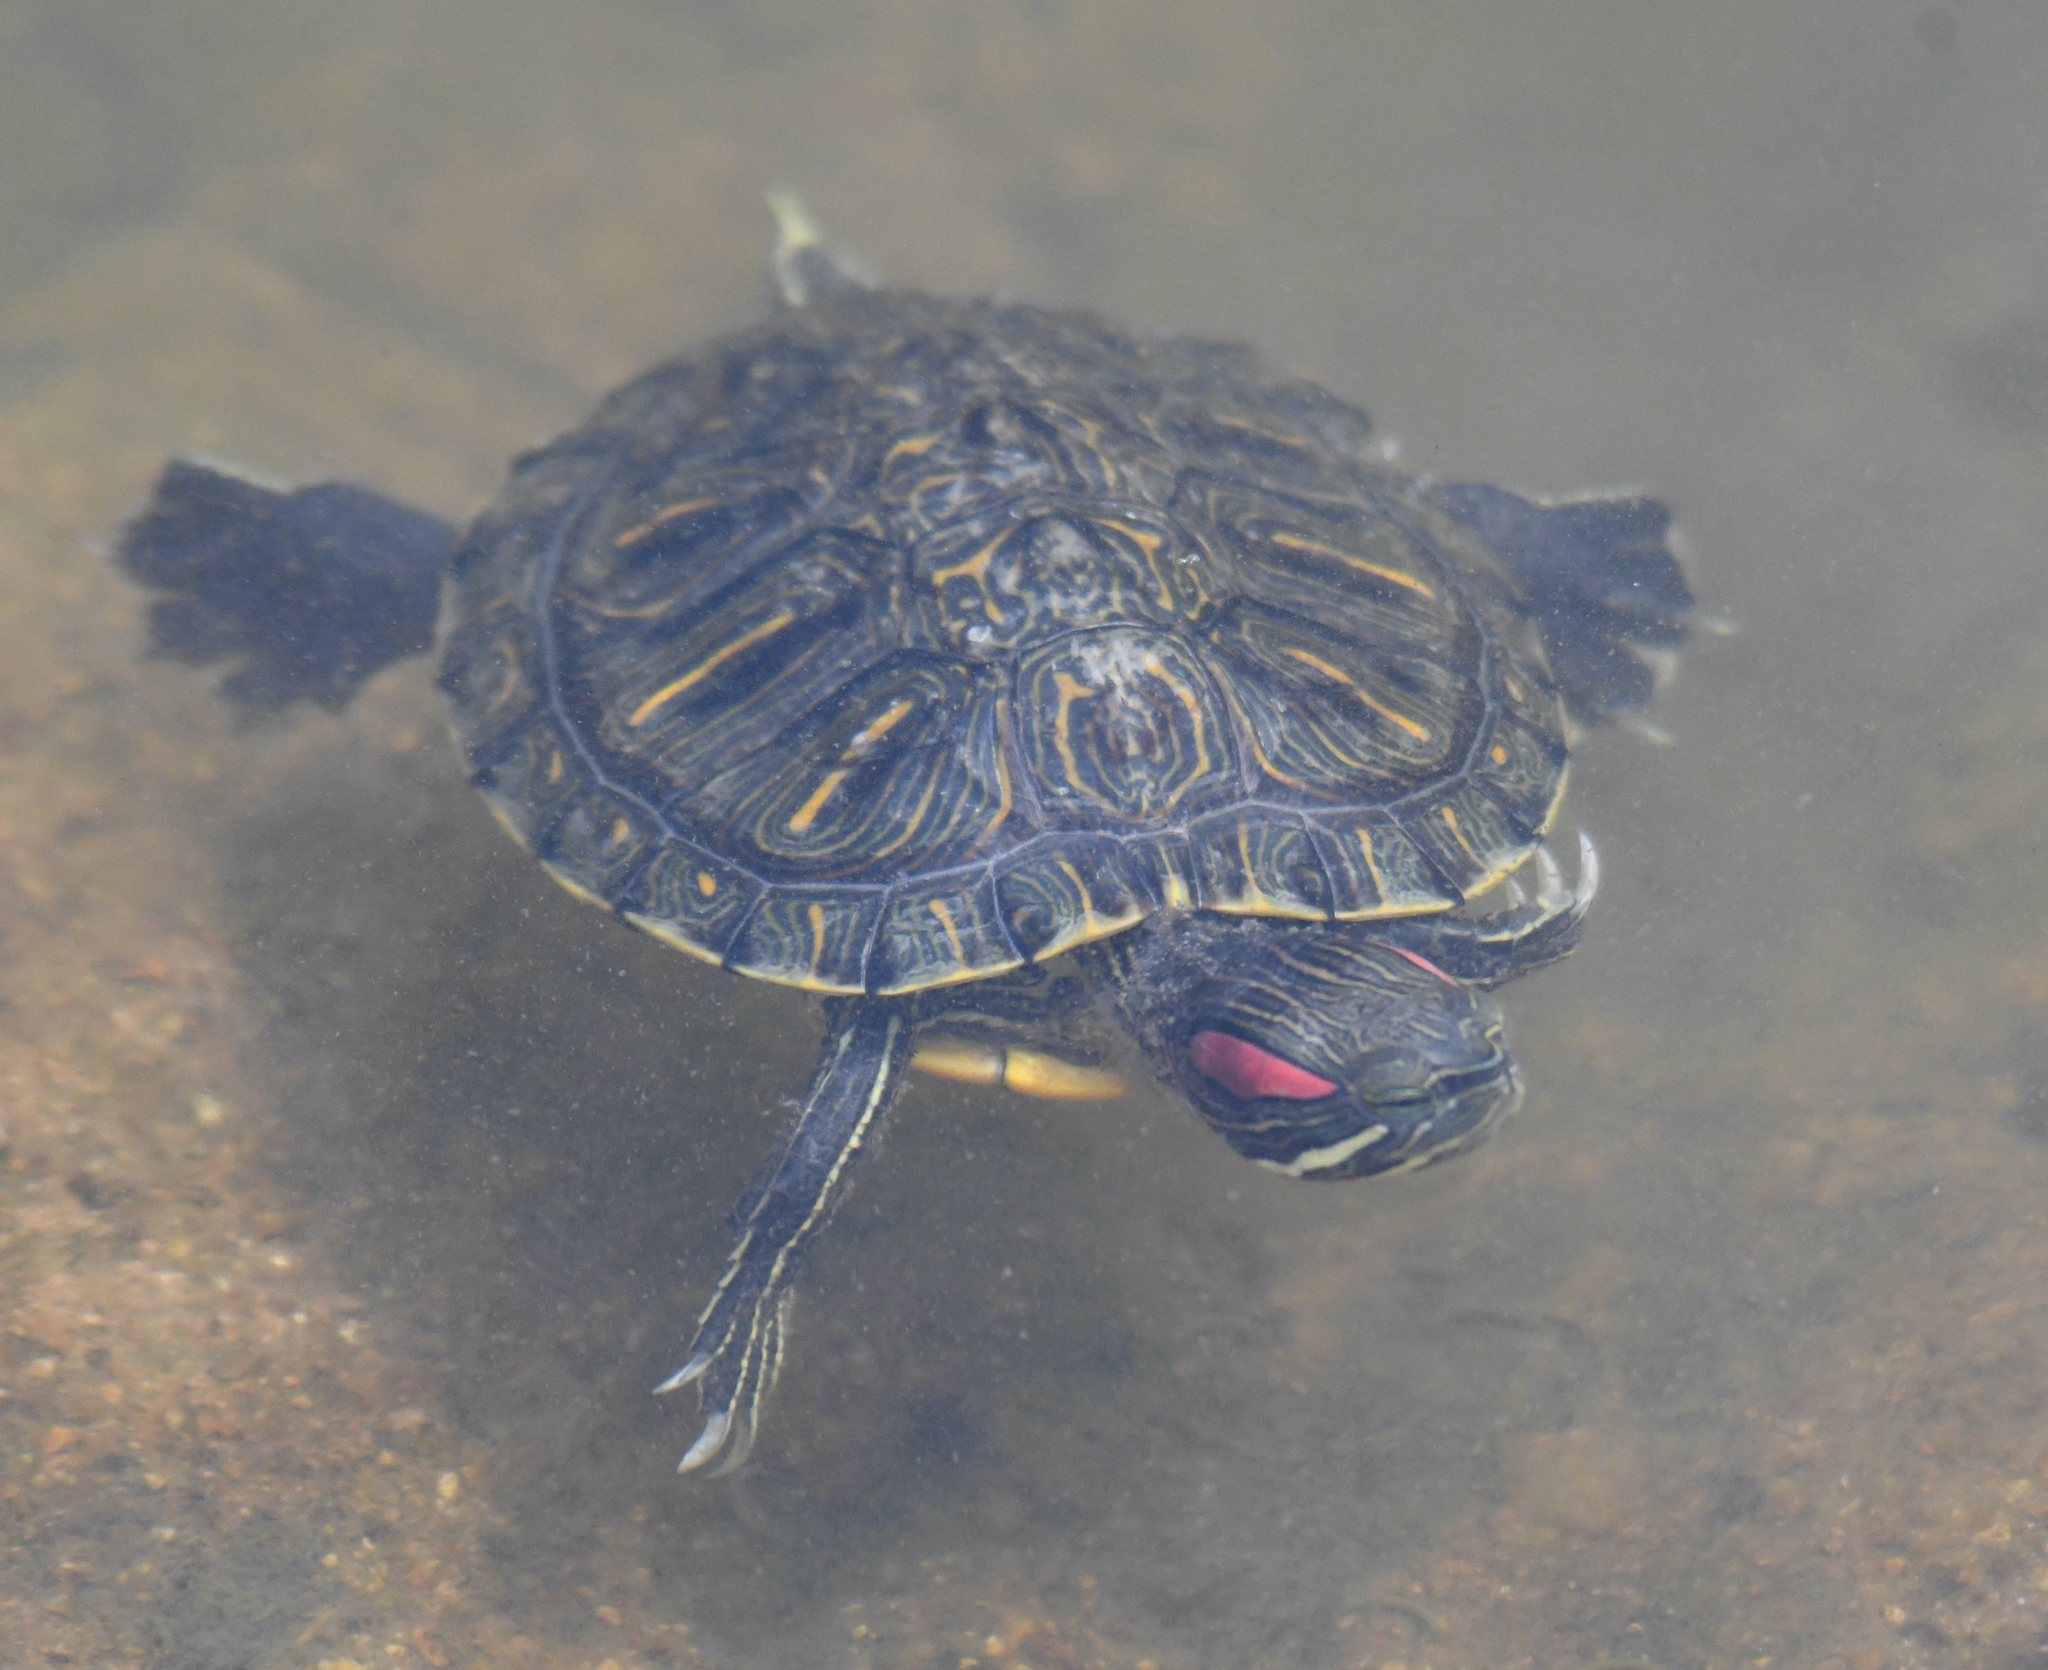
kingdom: Animalia
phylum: Chordata
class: Testudines
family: Emydidae
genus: Trachemys
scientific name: Trachemys scripta
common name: Slider
